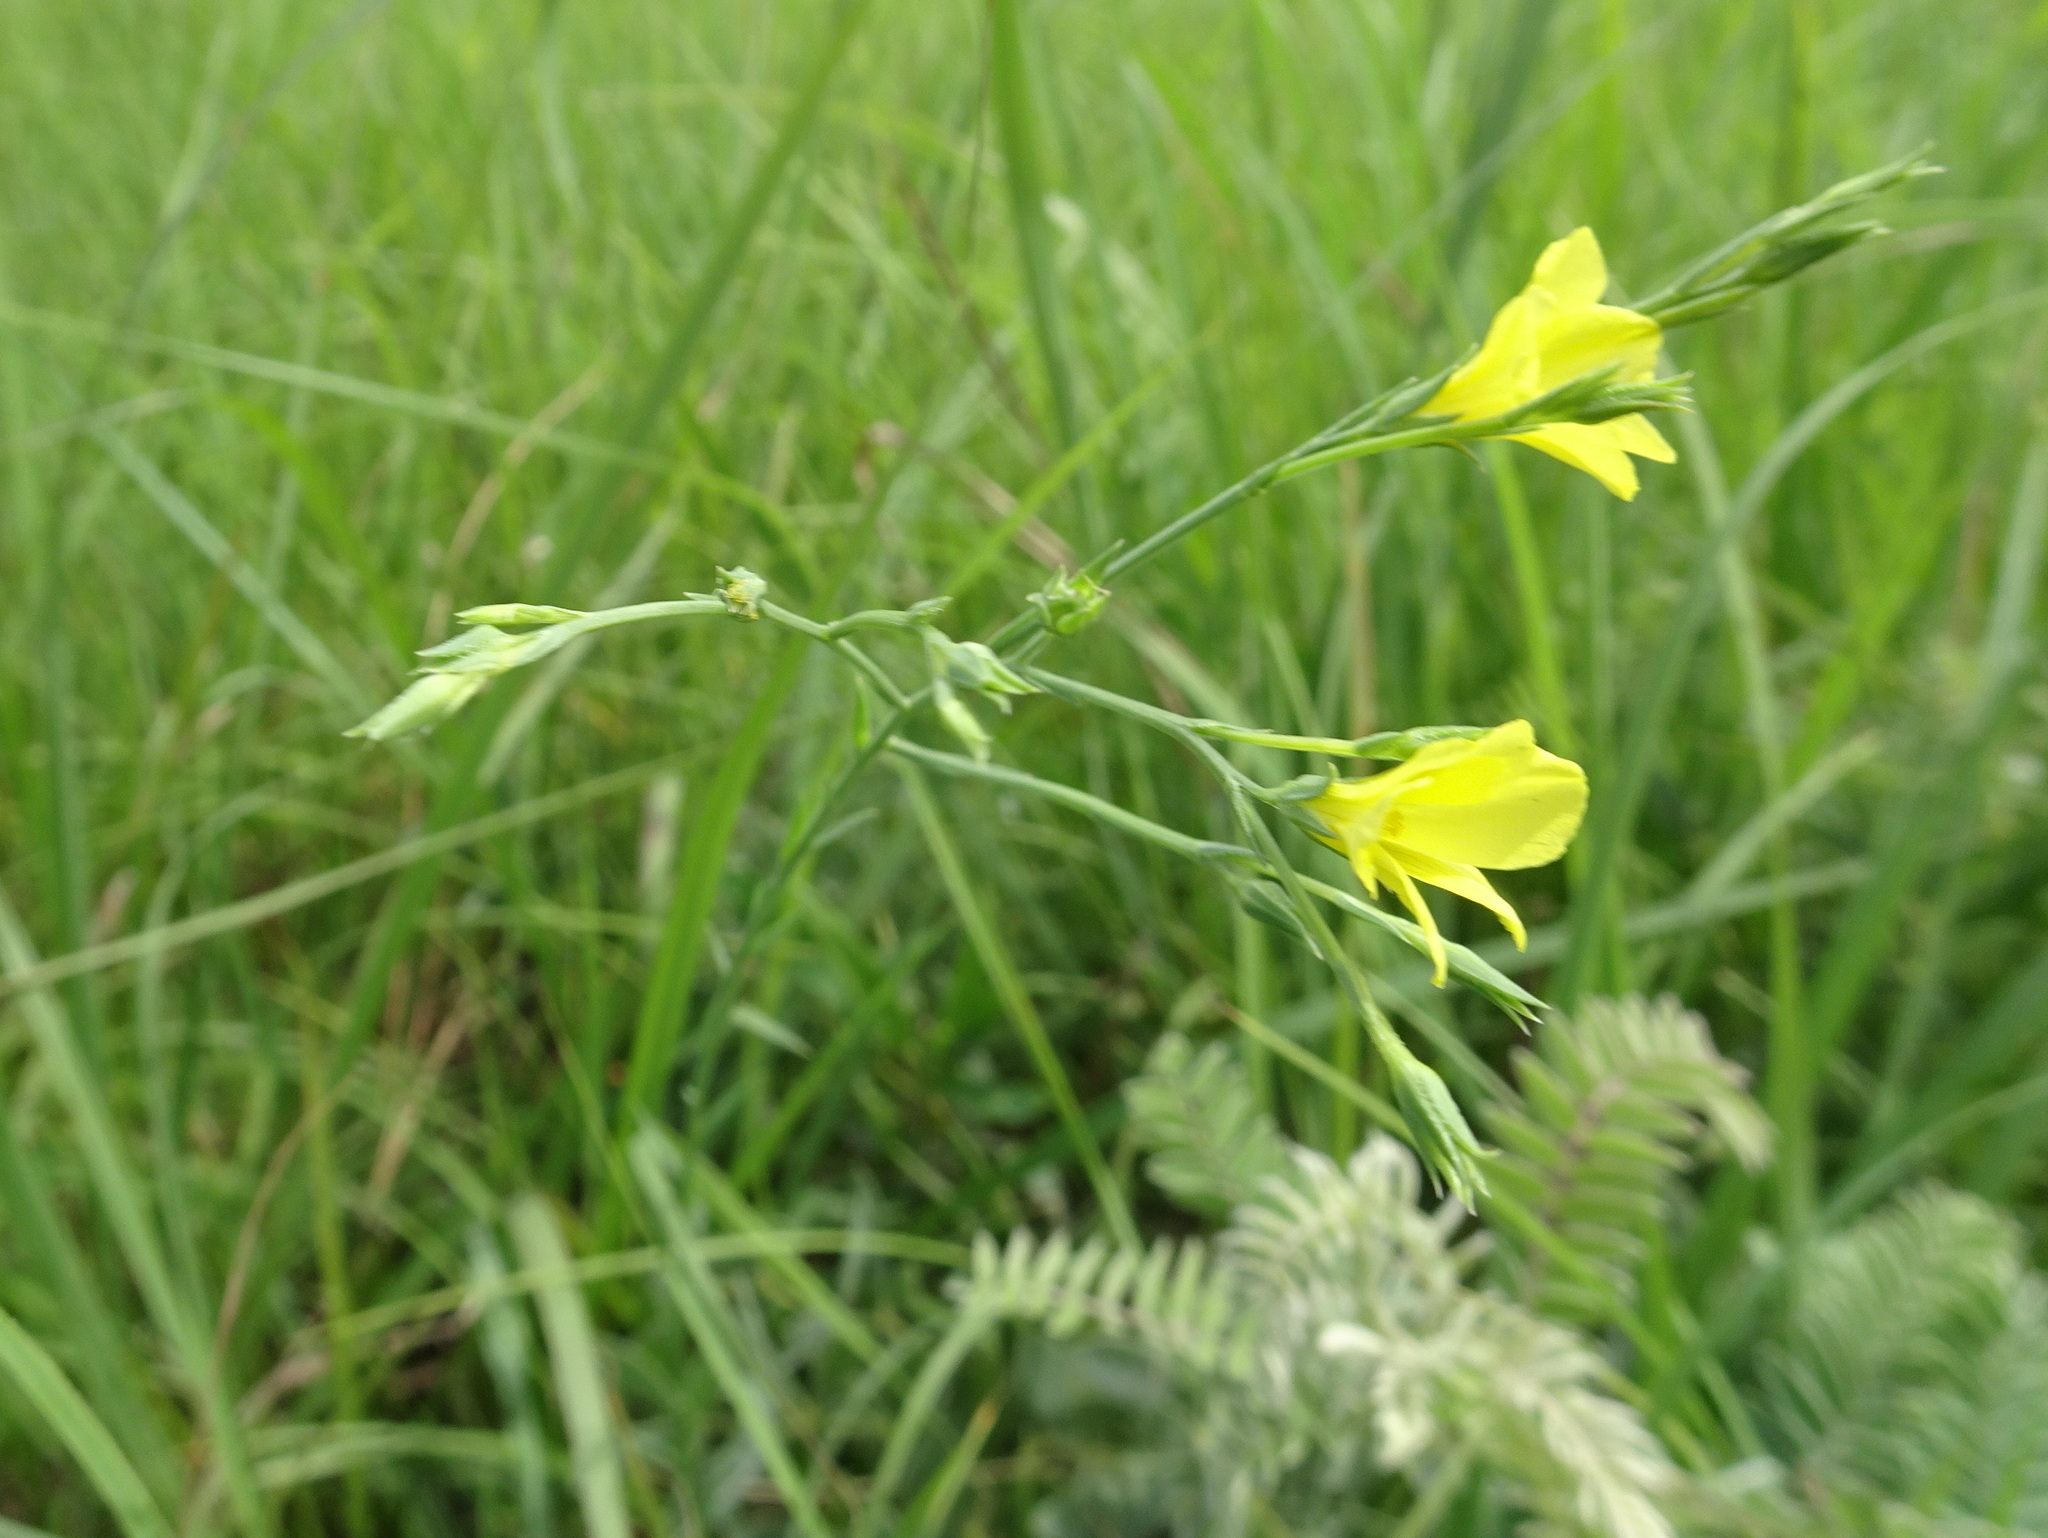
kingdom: Plantae
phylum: Tracheophyta
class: Magnoliopsida
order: Malpighiales
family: Linaceae
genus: Linum
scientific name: Linum sulcatum
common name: Grooved flax
